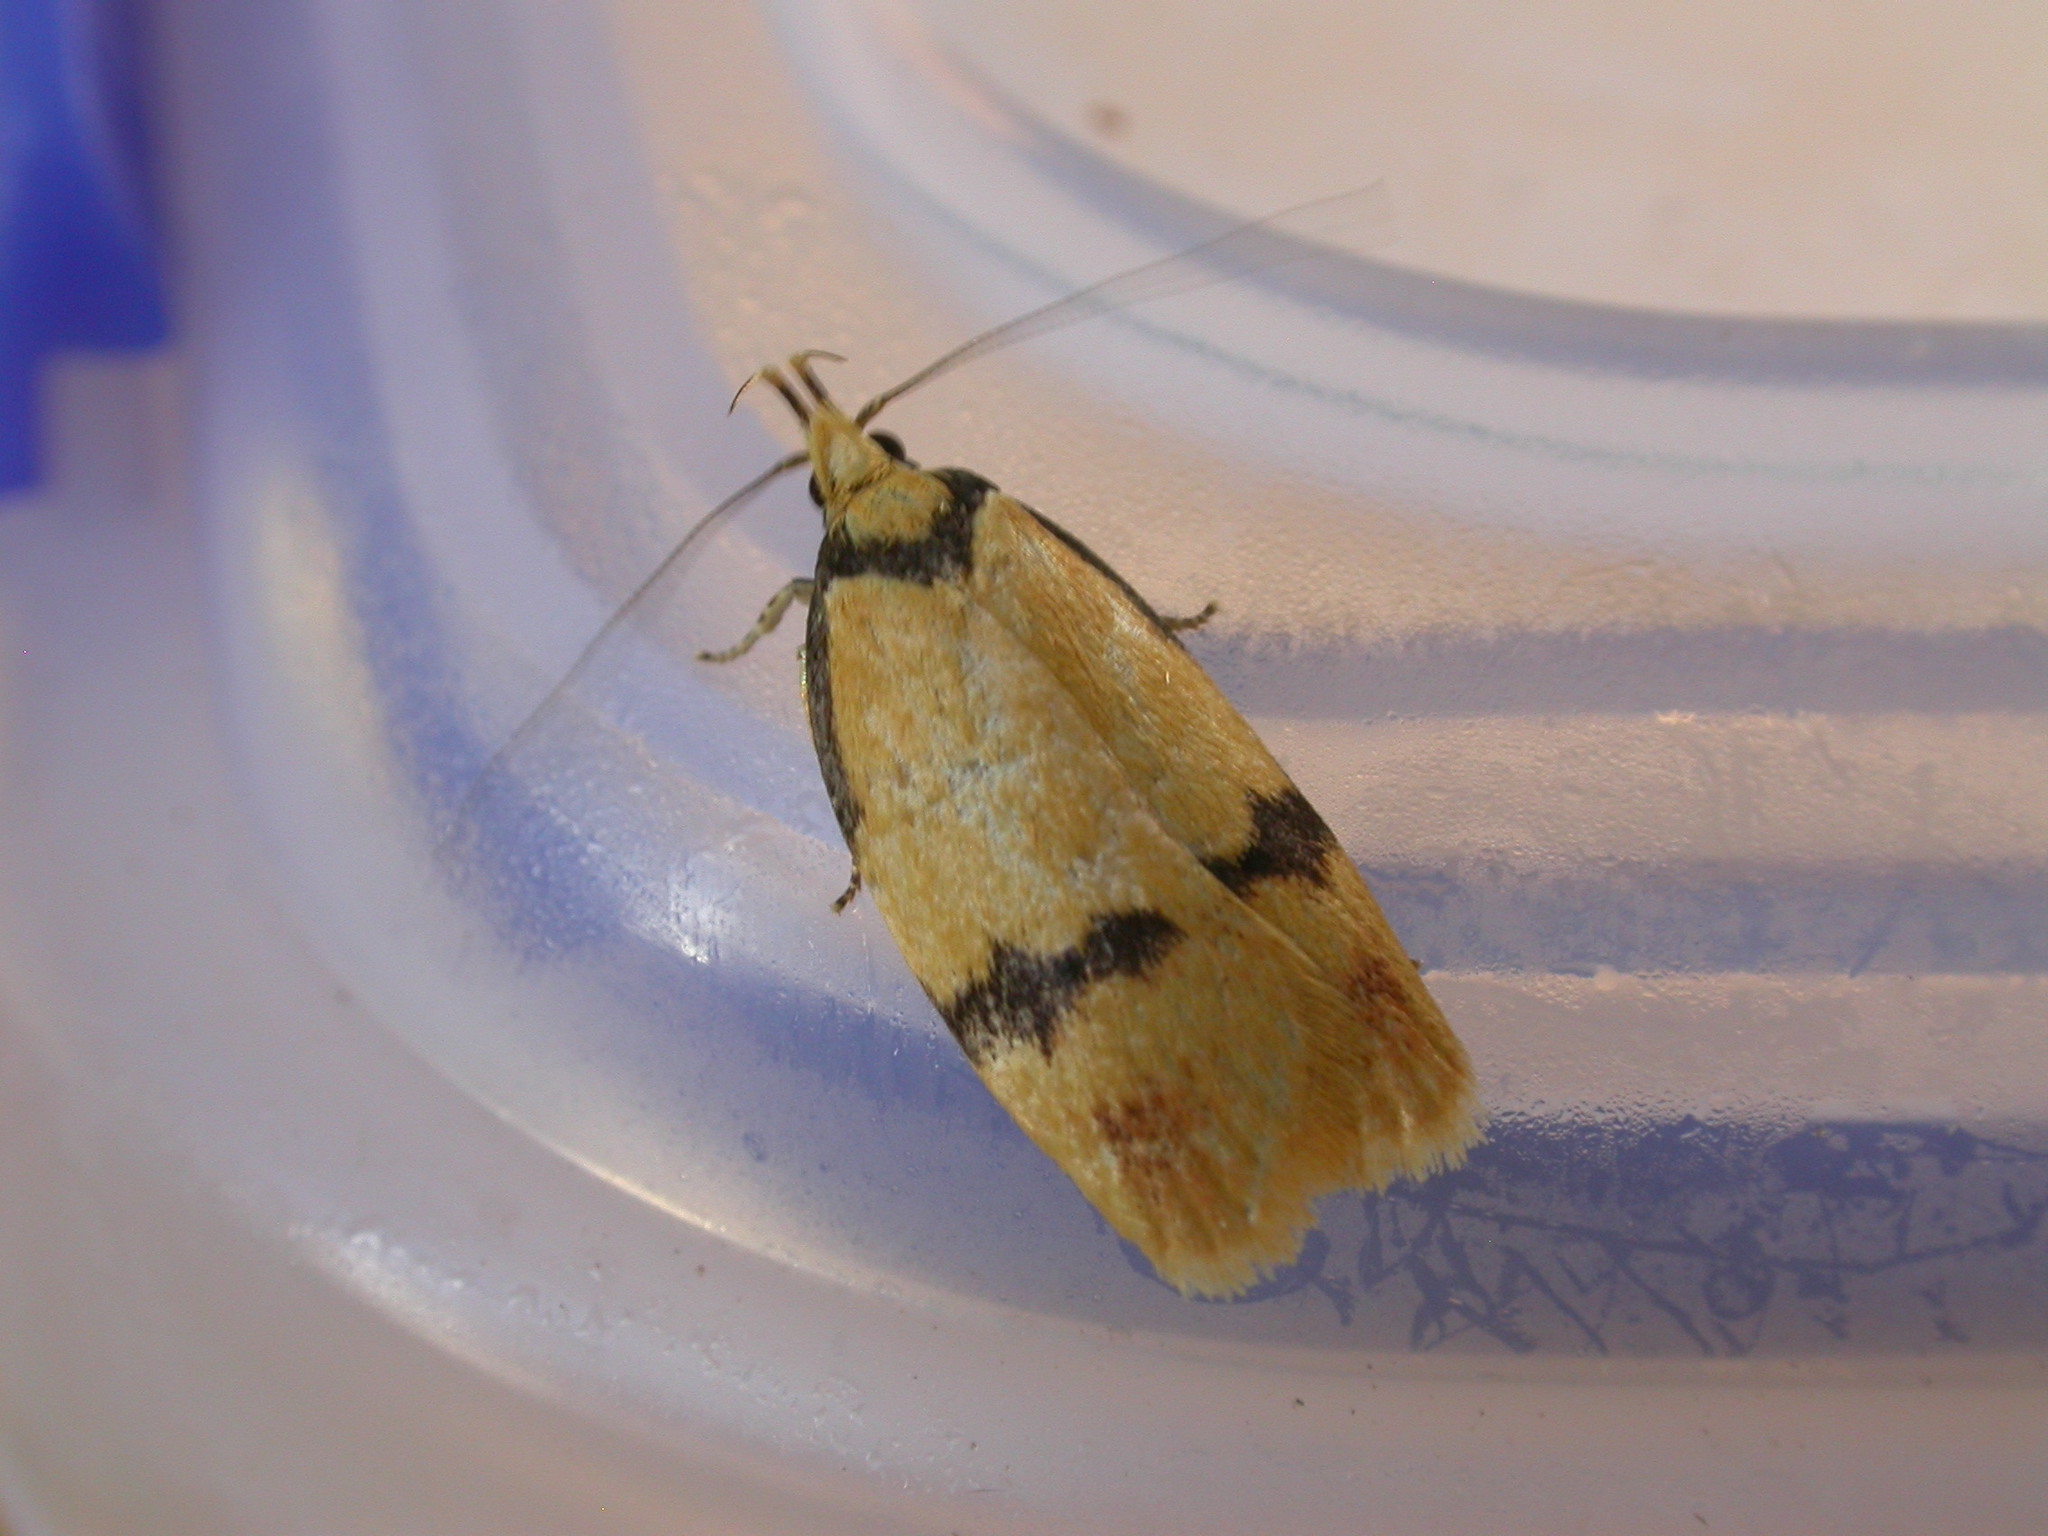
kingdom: Animalia
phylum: Arthropoda
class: Insecta
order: Lepidoptera
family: Depressariidae
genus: Pedois
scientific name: Pedois humerana
